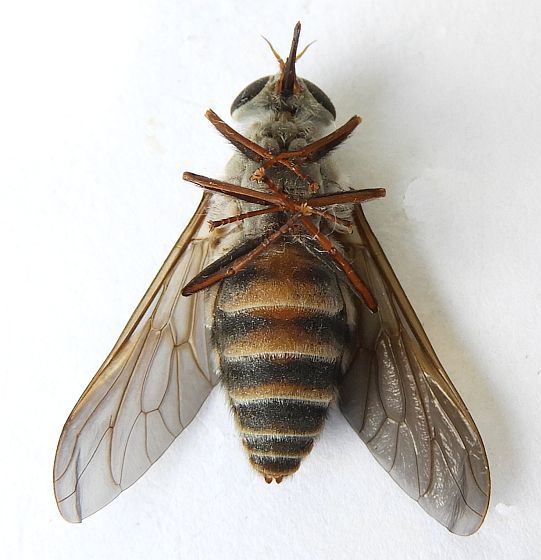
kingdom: Animalia
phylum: Arthropoda
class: Insecta
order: Diptera
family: Tabanidae
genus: Esenbeckia
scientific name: Esenbeckia delta
